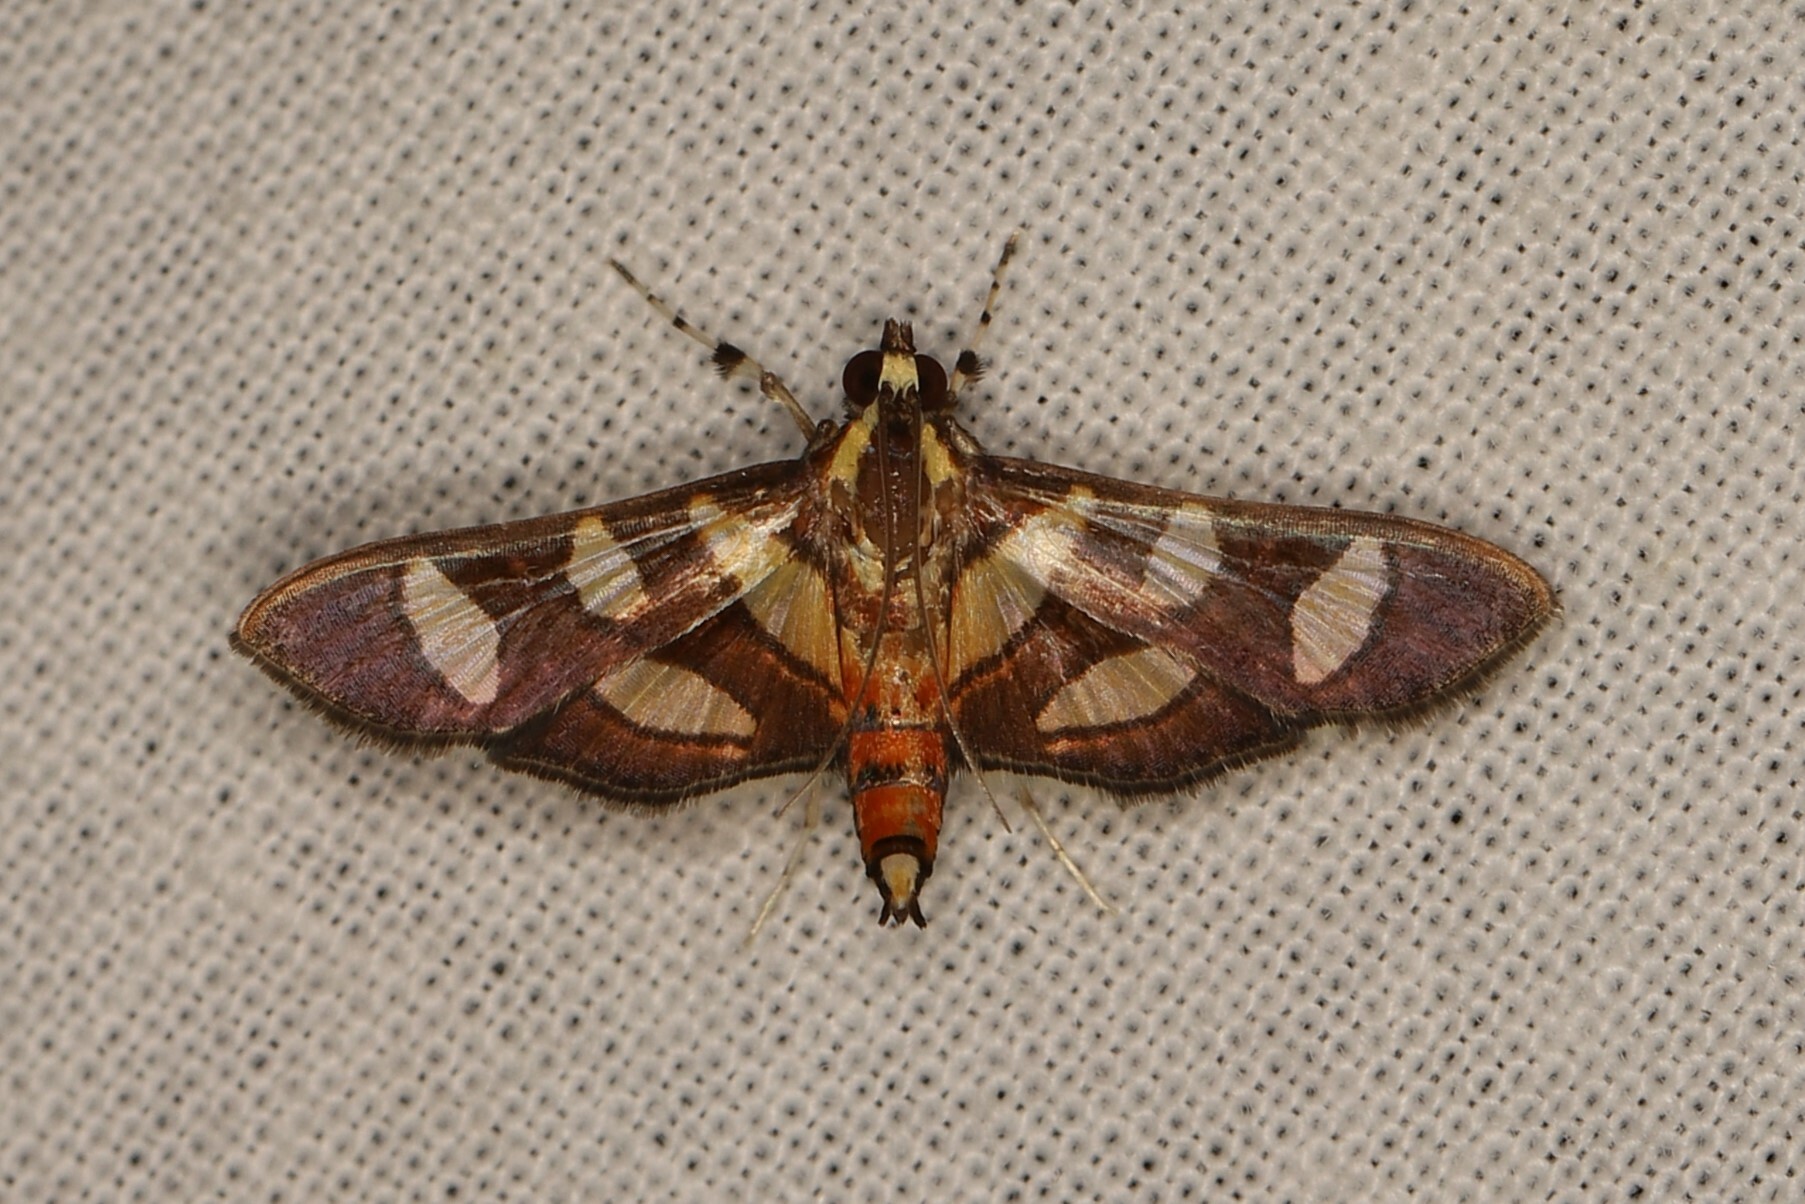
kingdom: Animalia
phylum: Arthropoda
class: Insecta
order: Lepidoptera
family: Crambidae
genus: Syngamia
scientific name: Syngamia florella
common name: Orange-spotted flower moth
